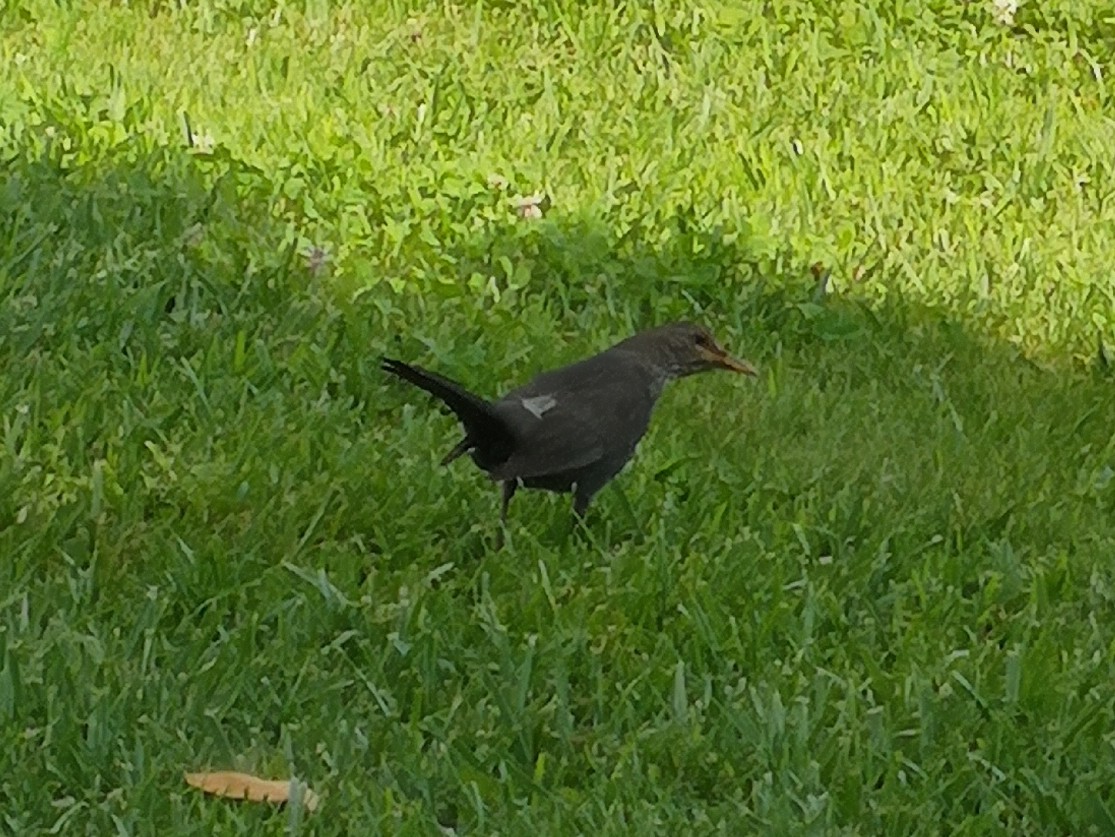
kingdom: Animalia
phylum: Chordata
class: Aves
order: Passeriformes
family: Turdidae
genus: Turdus
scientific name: Turdus merula
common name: Common blackbird
